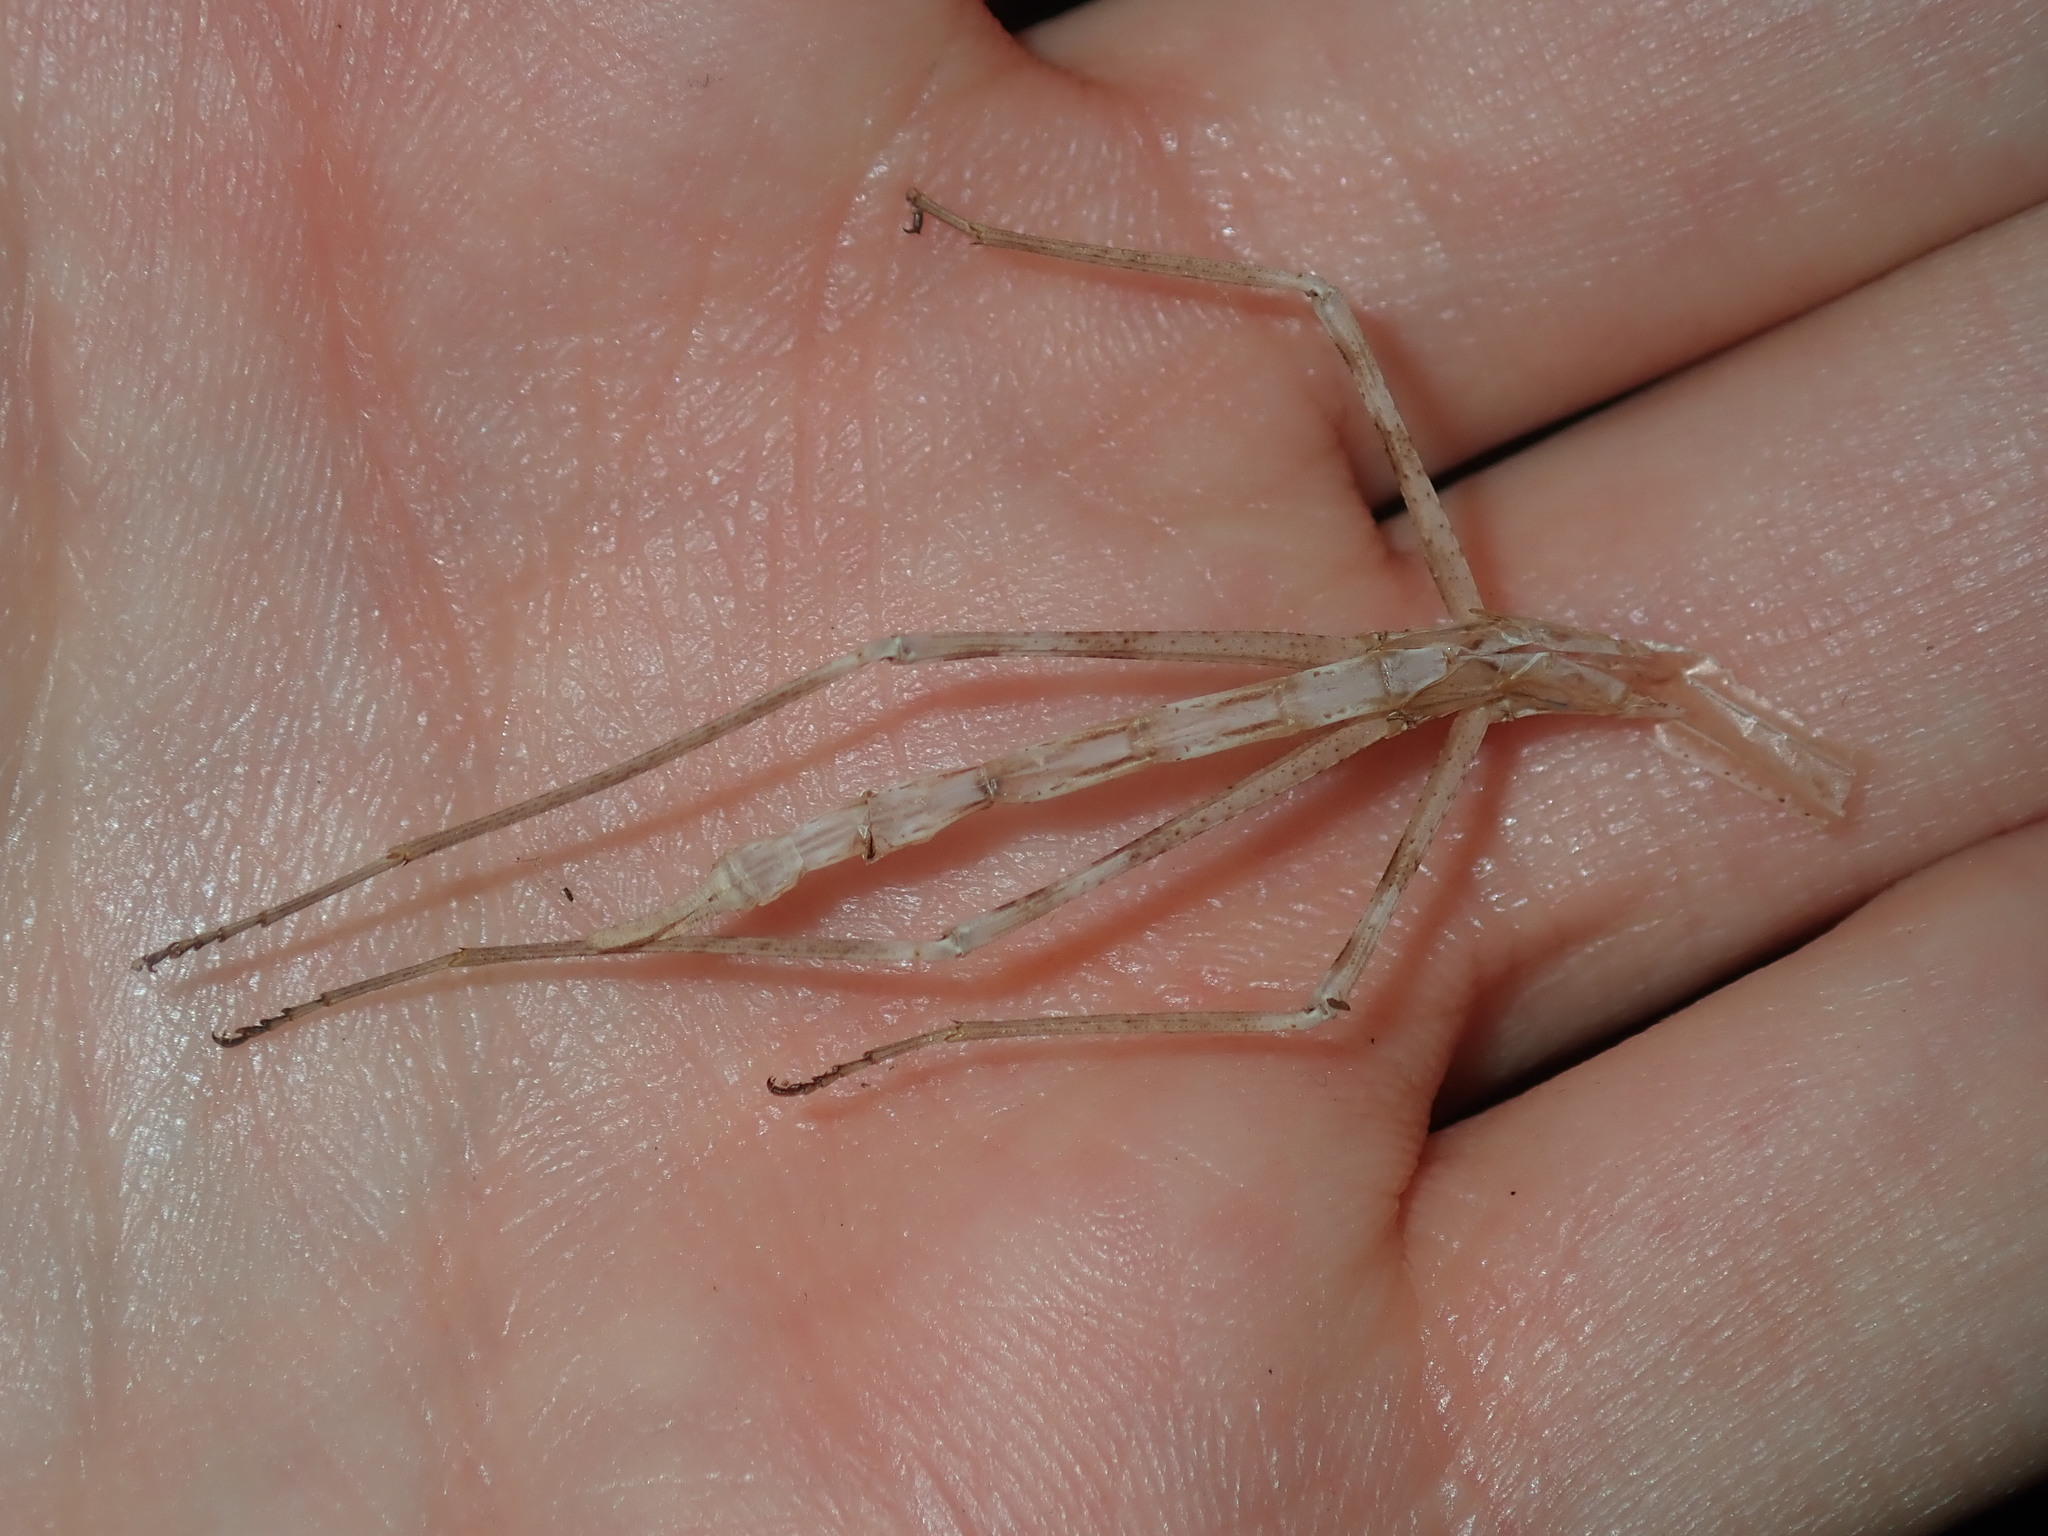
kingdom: Animalia
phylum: Arthropoda
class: Insecta
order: Mantodea
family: Mantidae
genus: Archimantis
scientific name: Archimantis latistyla
